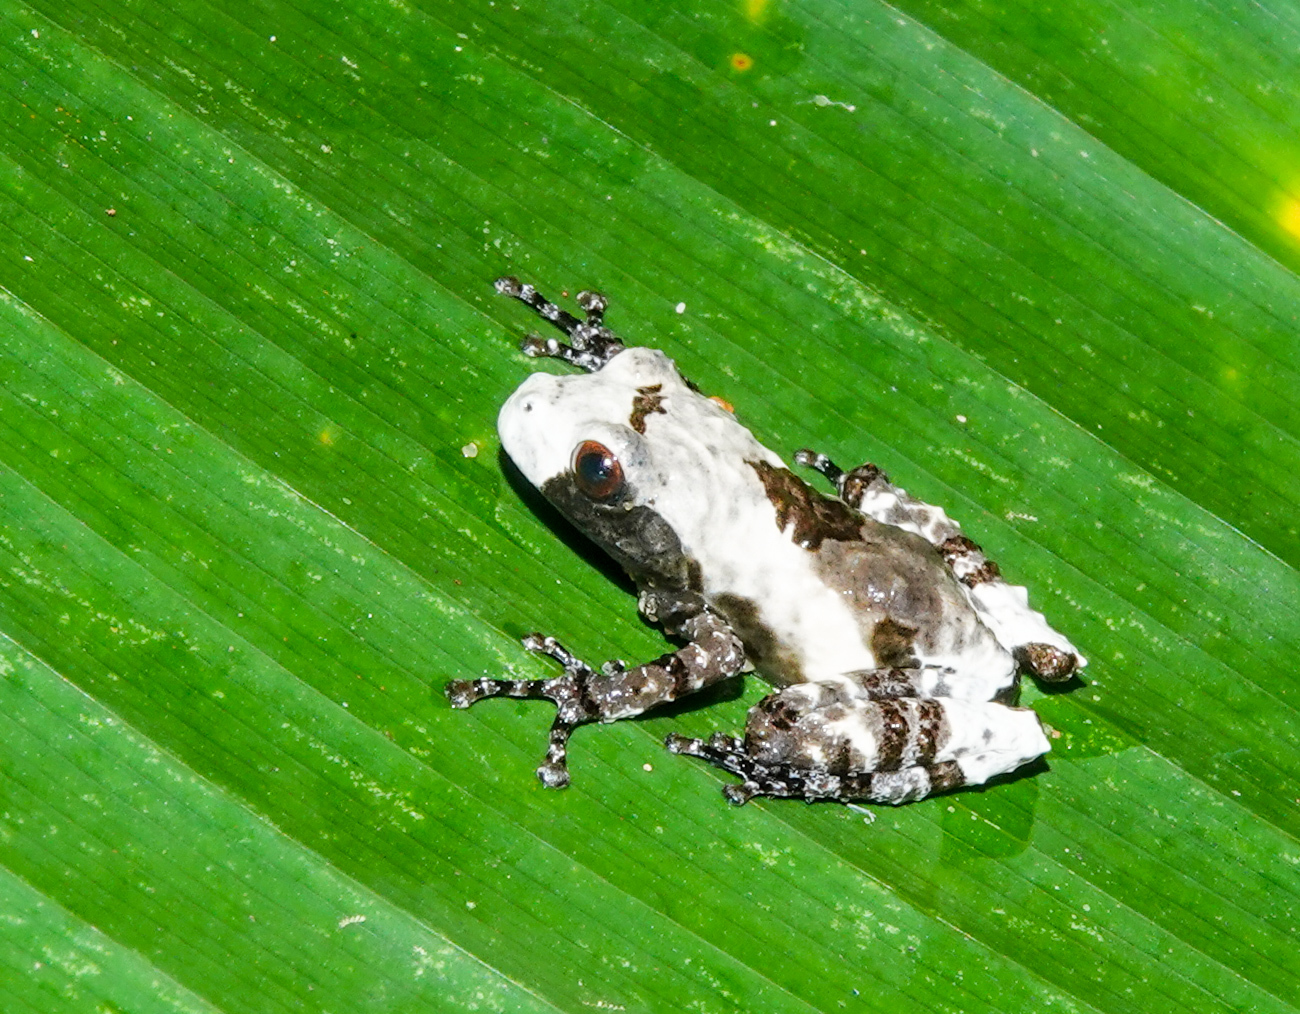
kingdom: Animalia
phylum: Chordata
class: Amphibia
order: Anura
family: Rhacophoridae
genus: Theloderma
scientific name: Theloderma baibungense
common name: Baibung small treefrog
